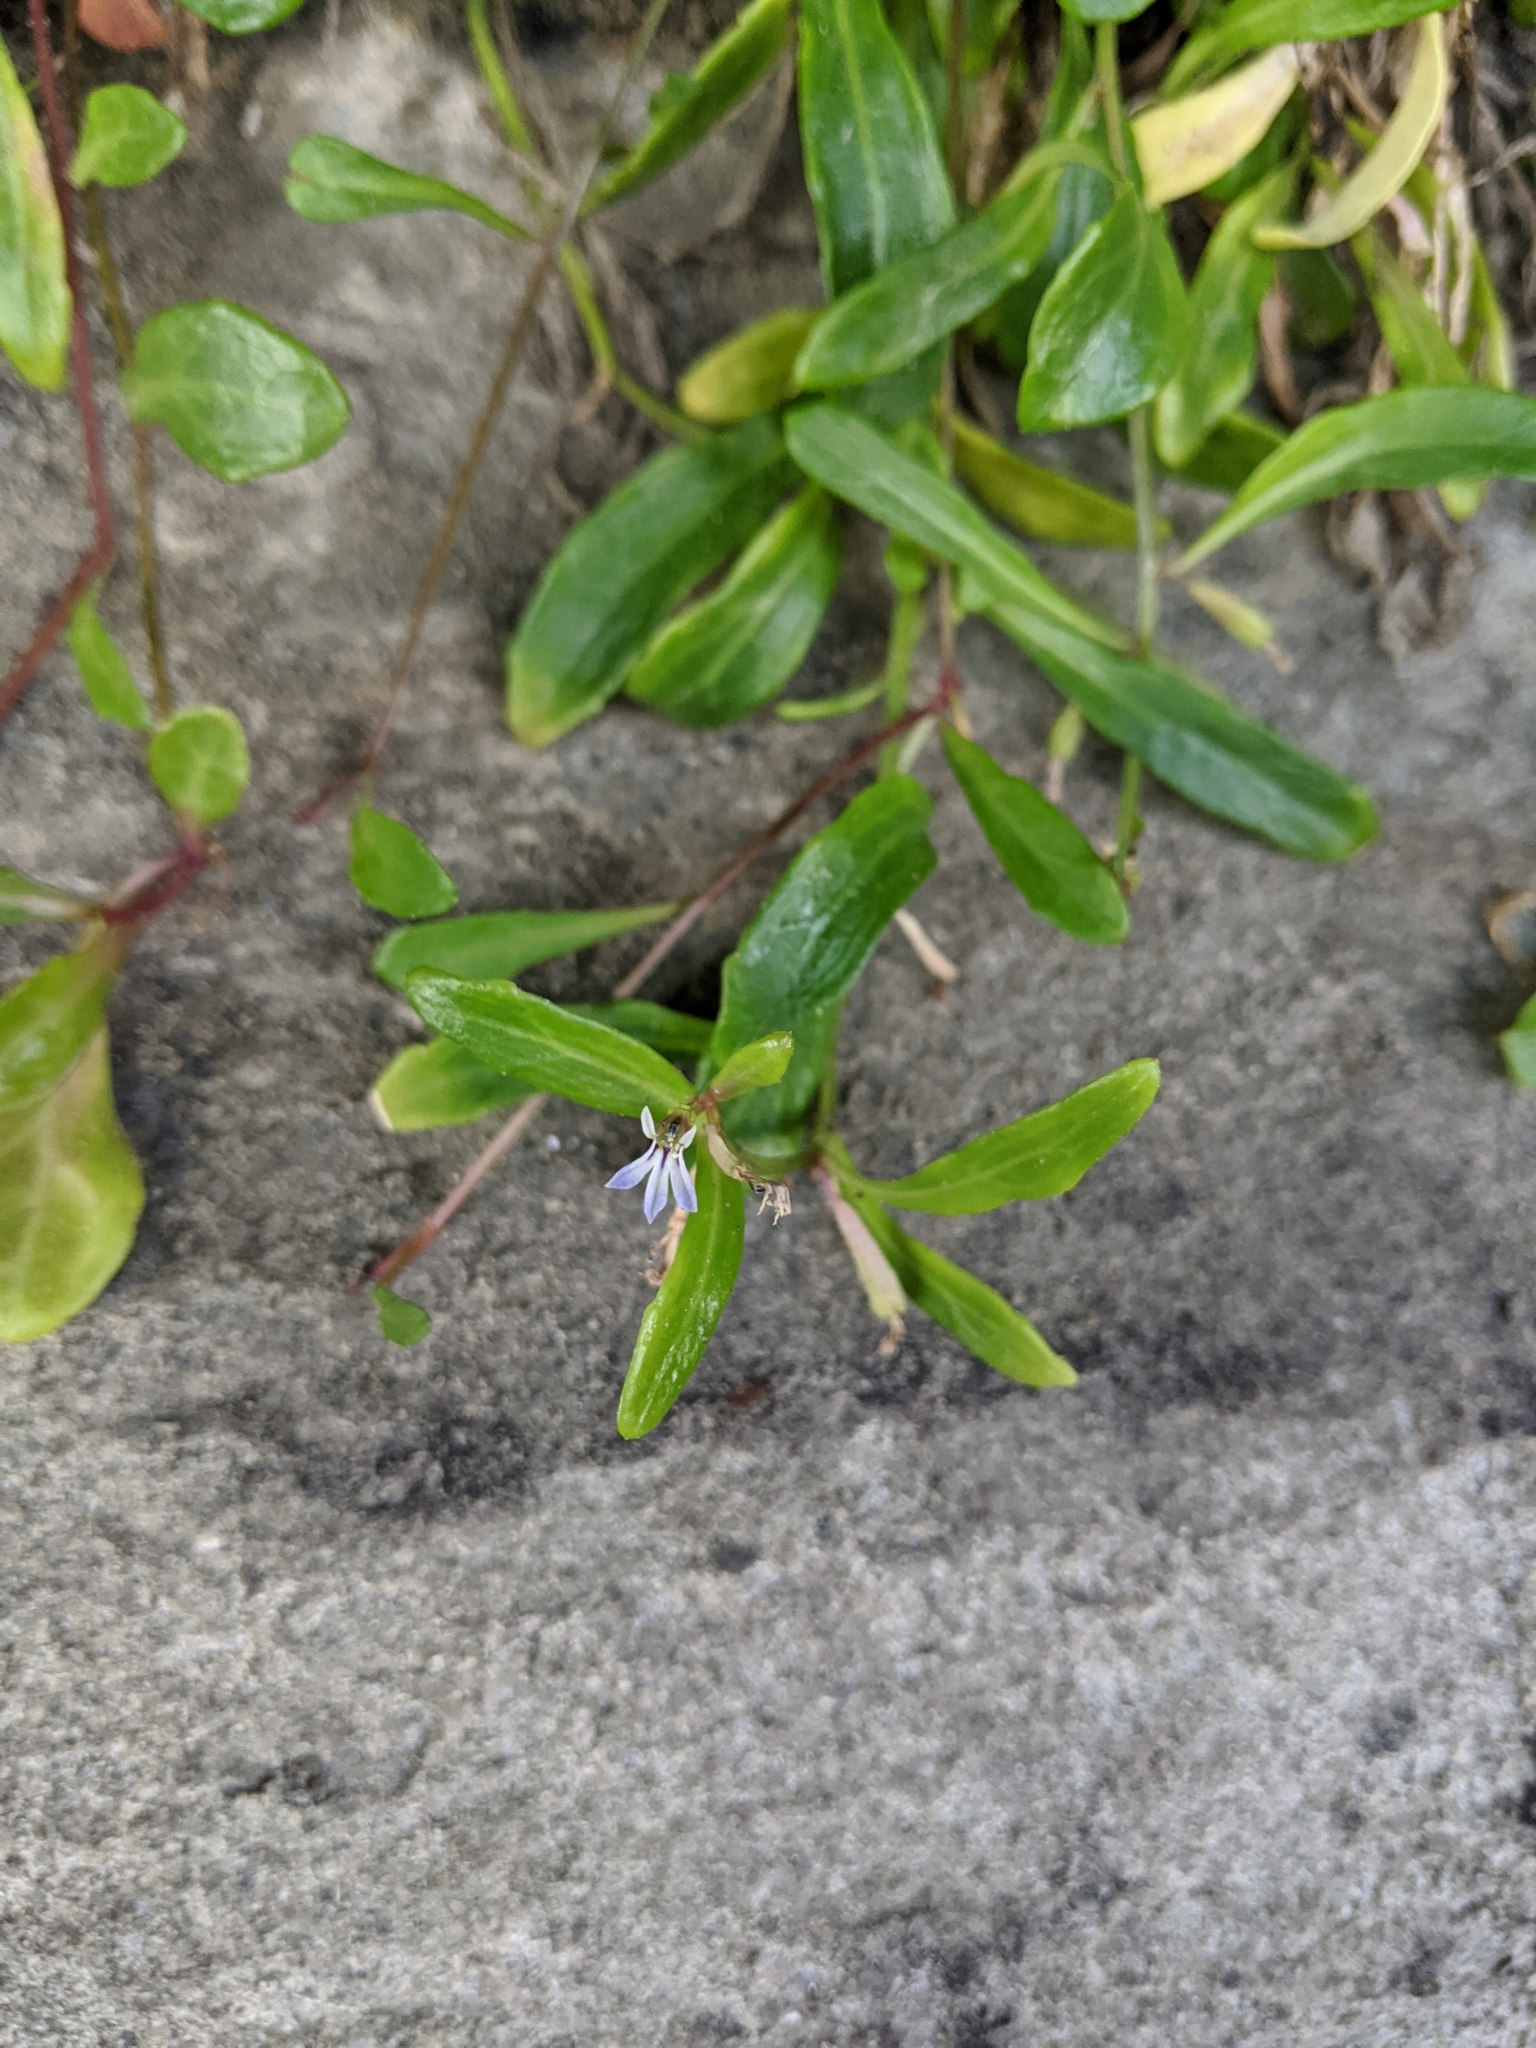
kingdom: Plantae
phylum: Tracheophyta
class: Magnoliopsida
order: Asterales
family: Campanulaceae
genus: Lobelia
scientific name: Lobelia anceps
